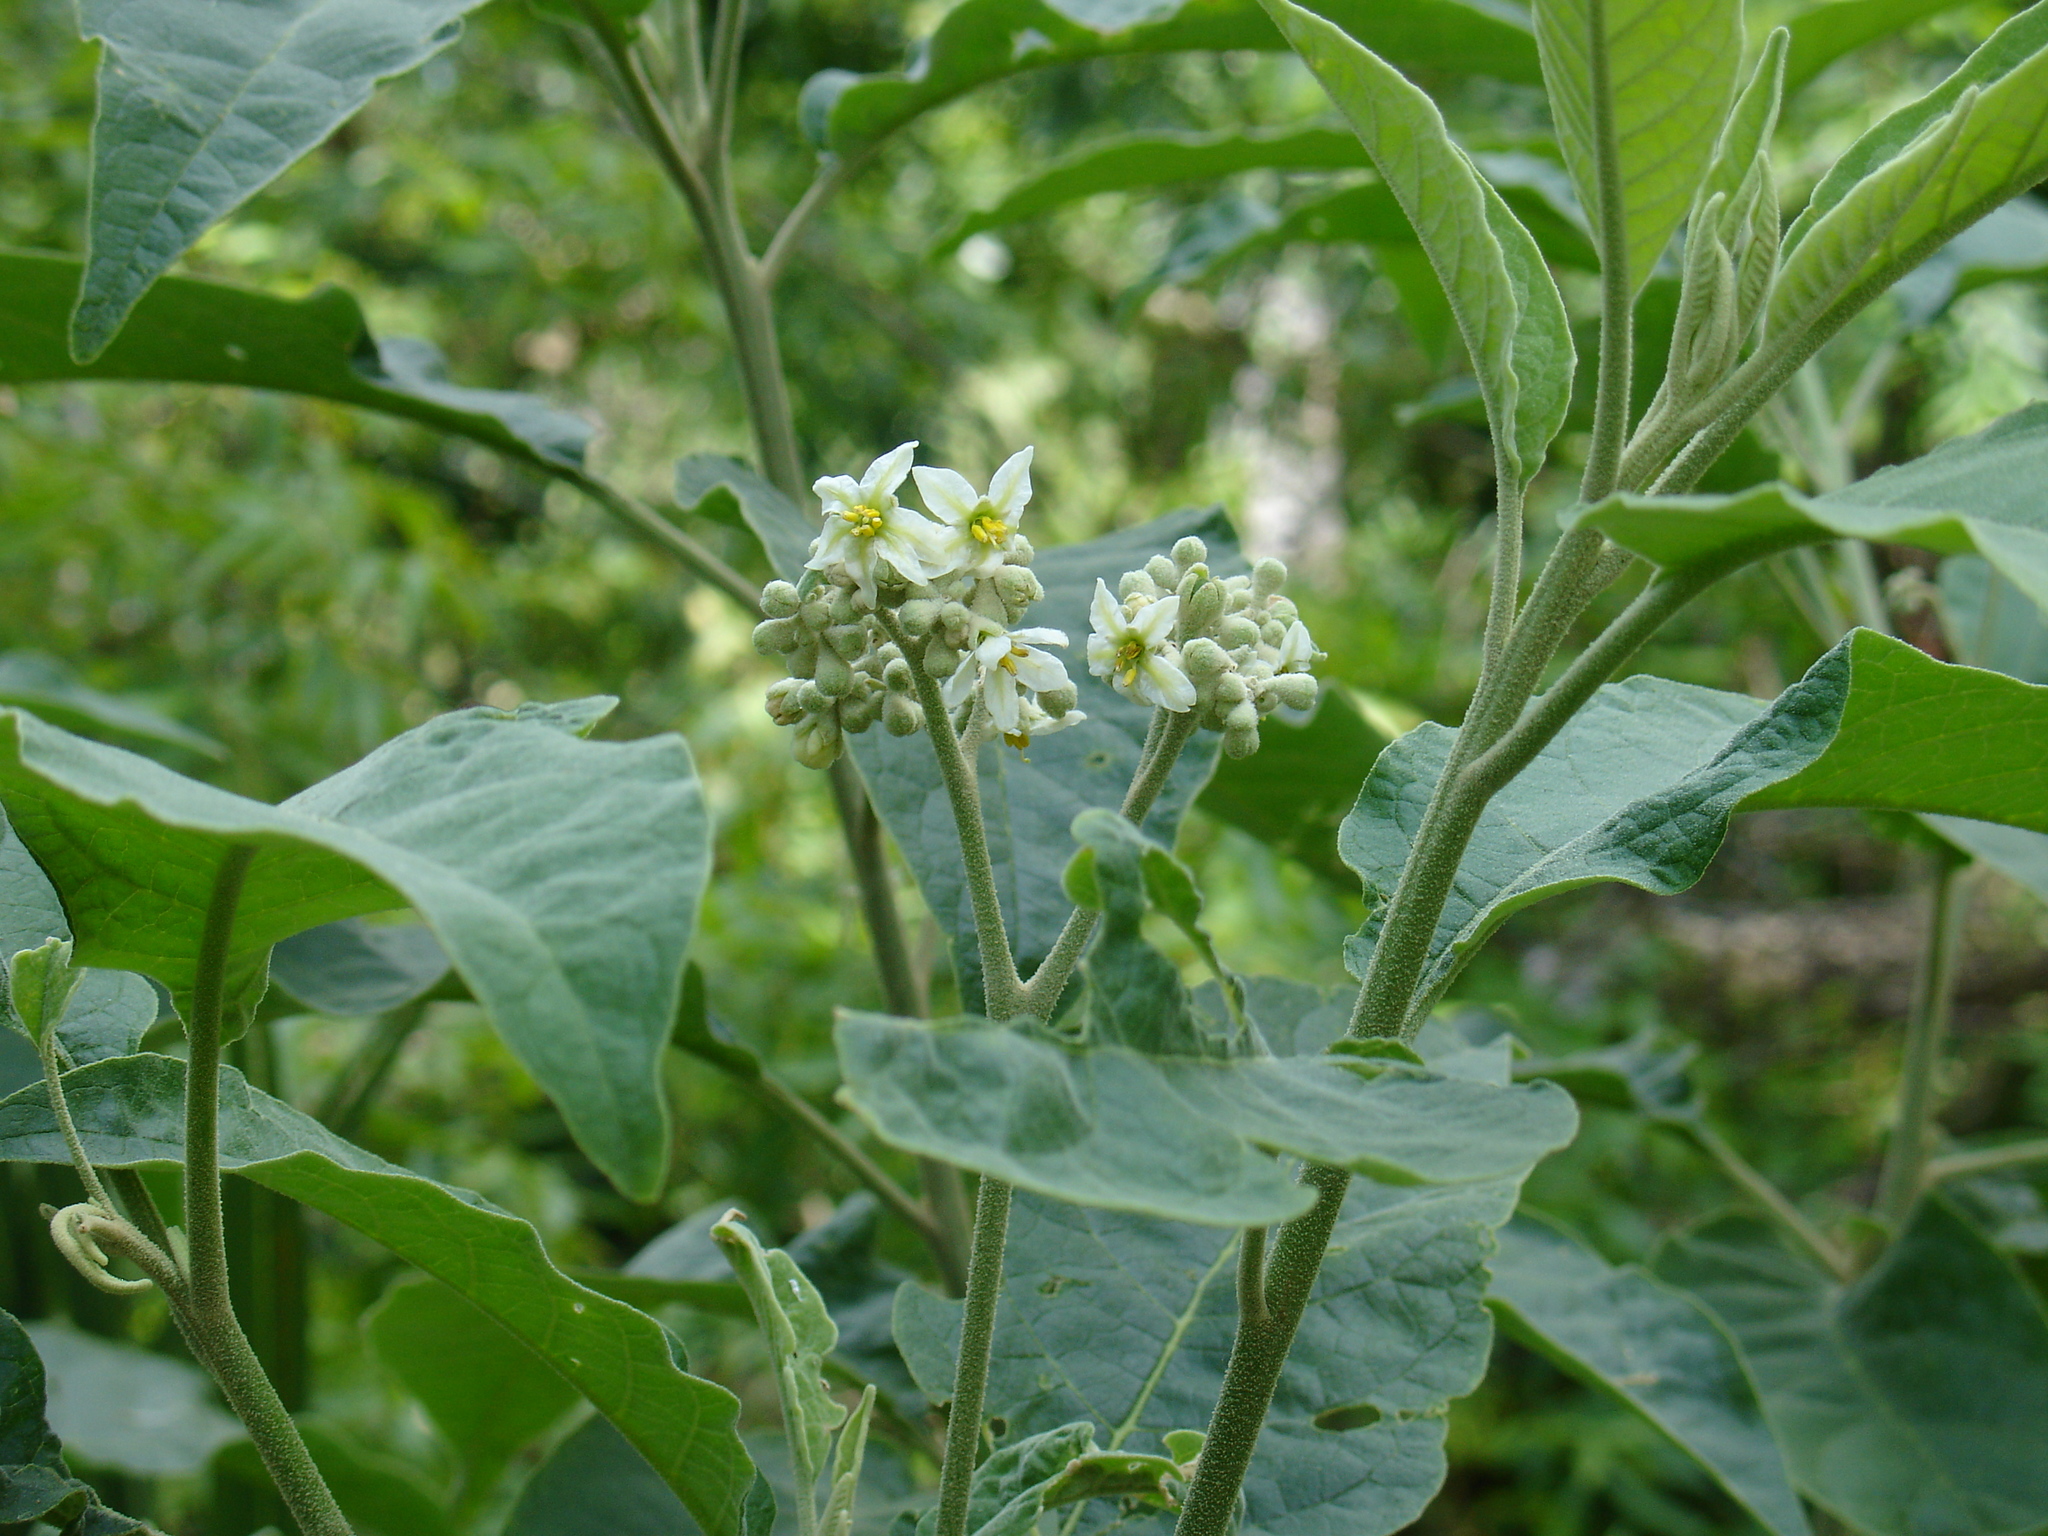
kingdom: Plantae
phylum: Tracheophyta
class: Magnoliopsida
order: Solanales
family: Solanaceae
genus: Solanum
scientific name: Solanum erianthum
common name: Tobacco-tree
